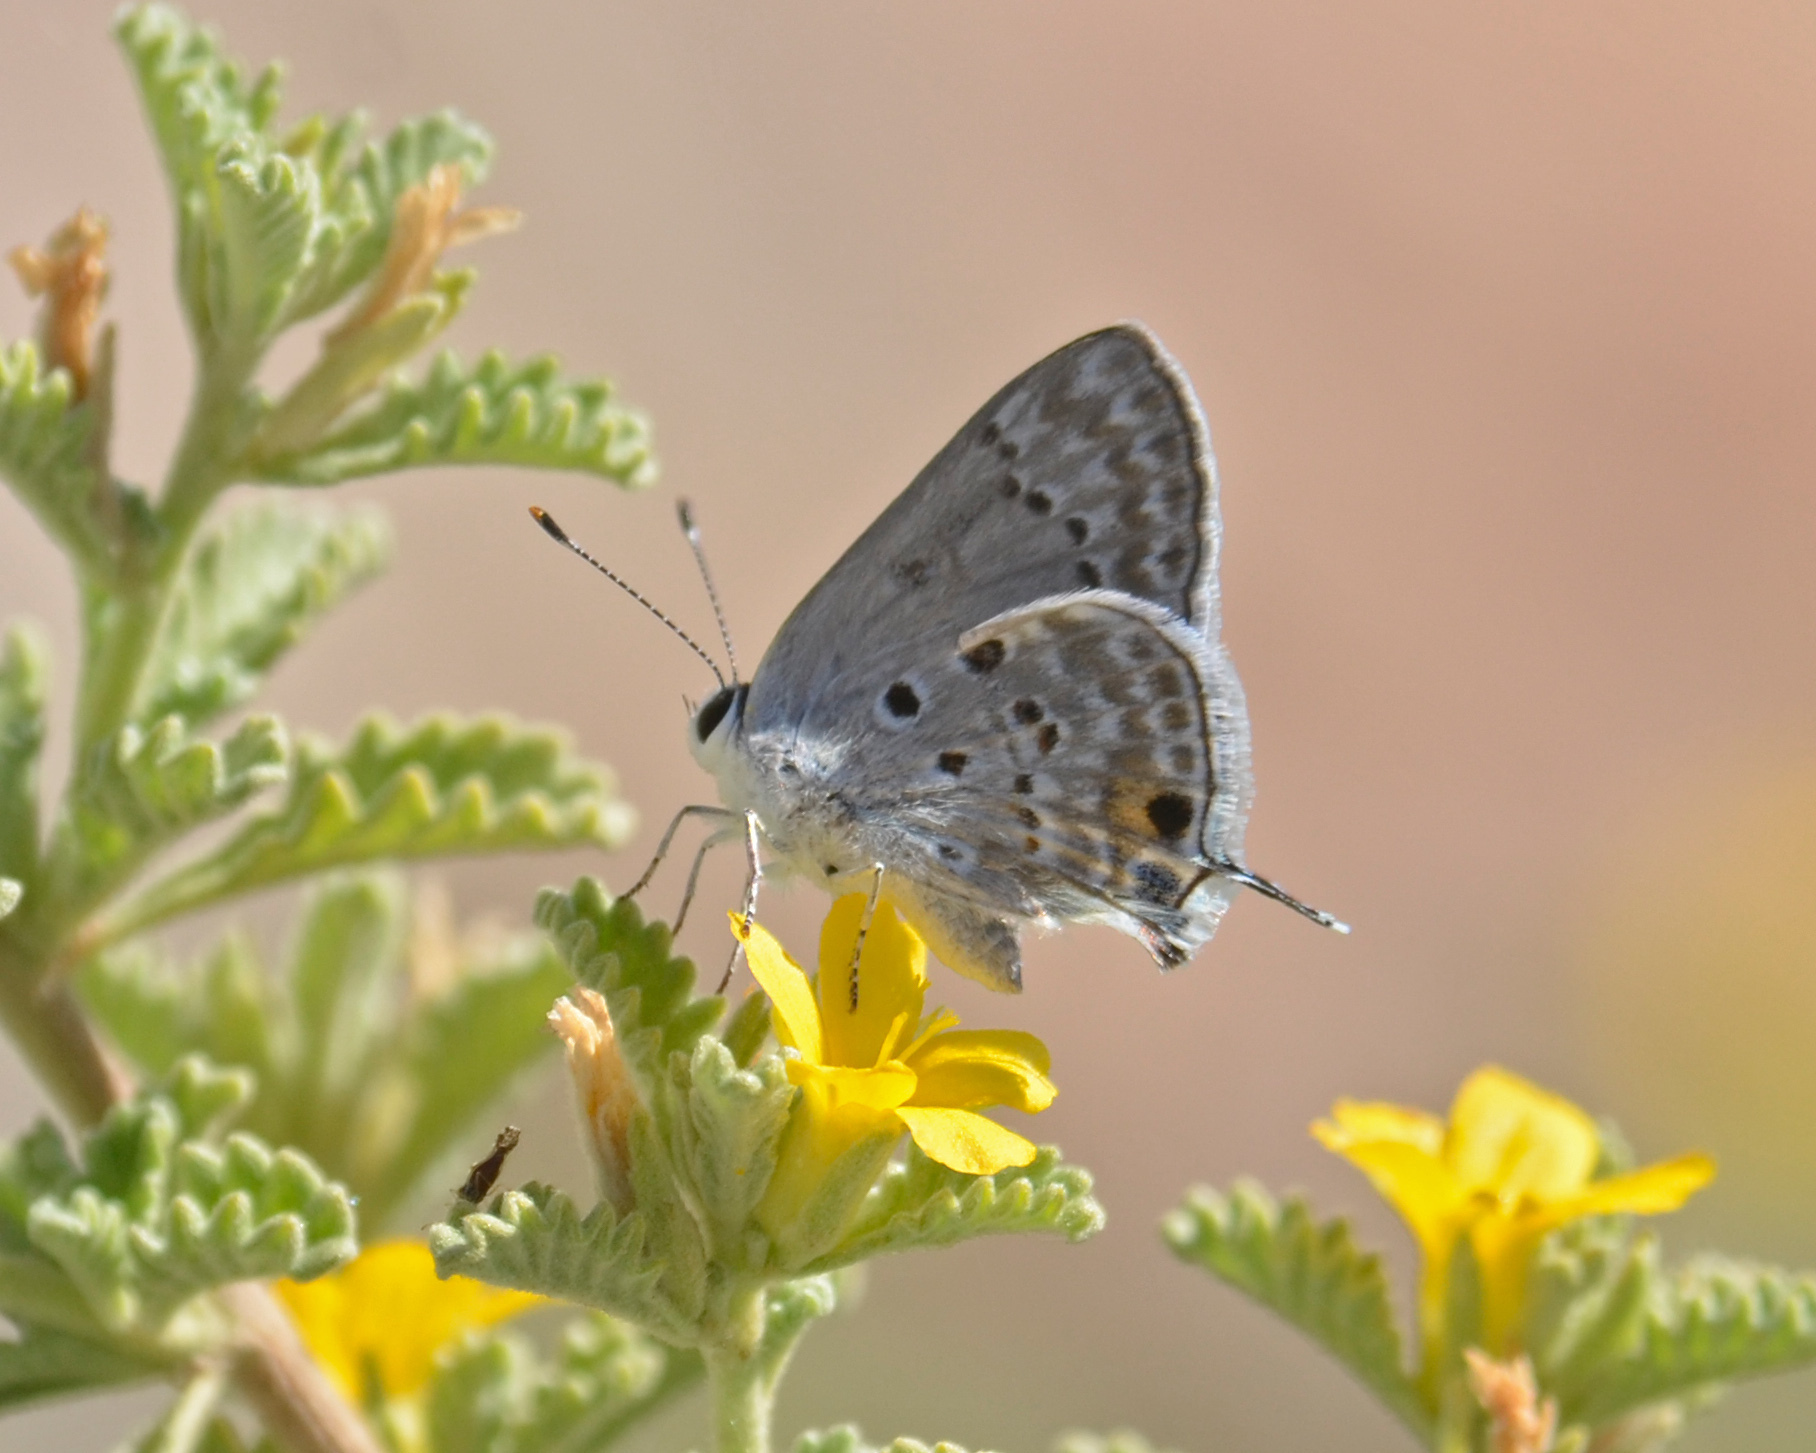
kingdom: Animalia
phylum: Arthropoda
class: Insecta
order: Lepidoptera
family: Lycaenidae
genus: Strymon
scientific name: Strymon
